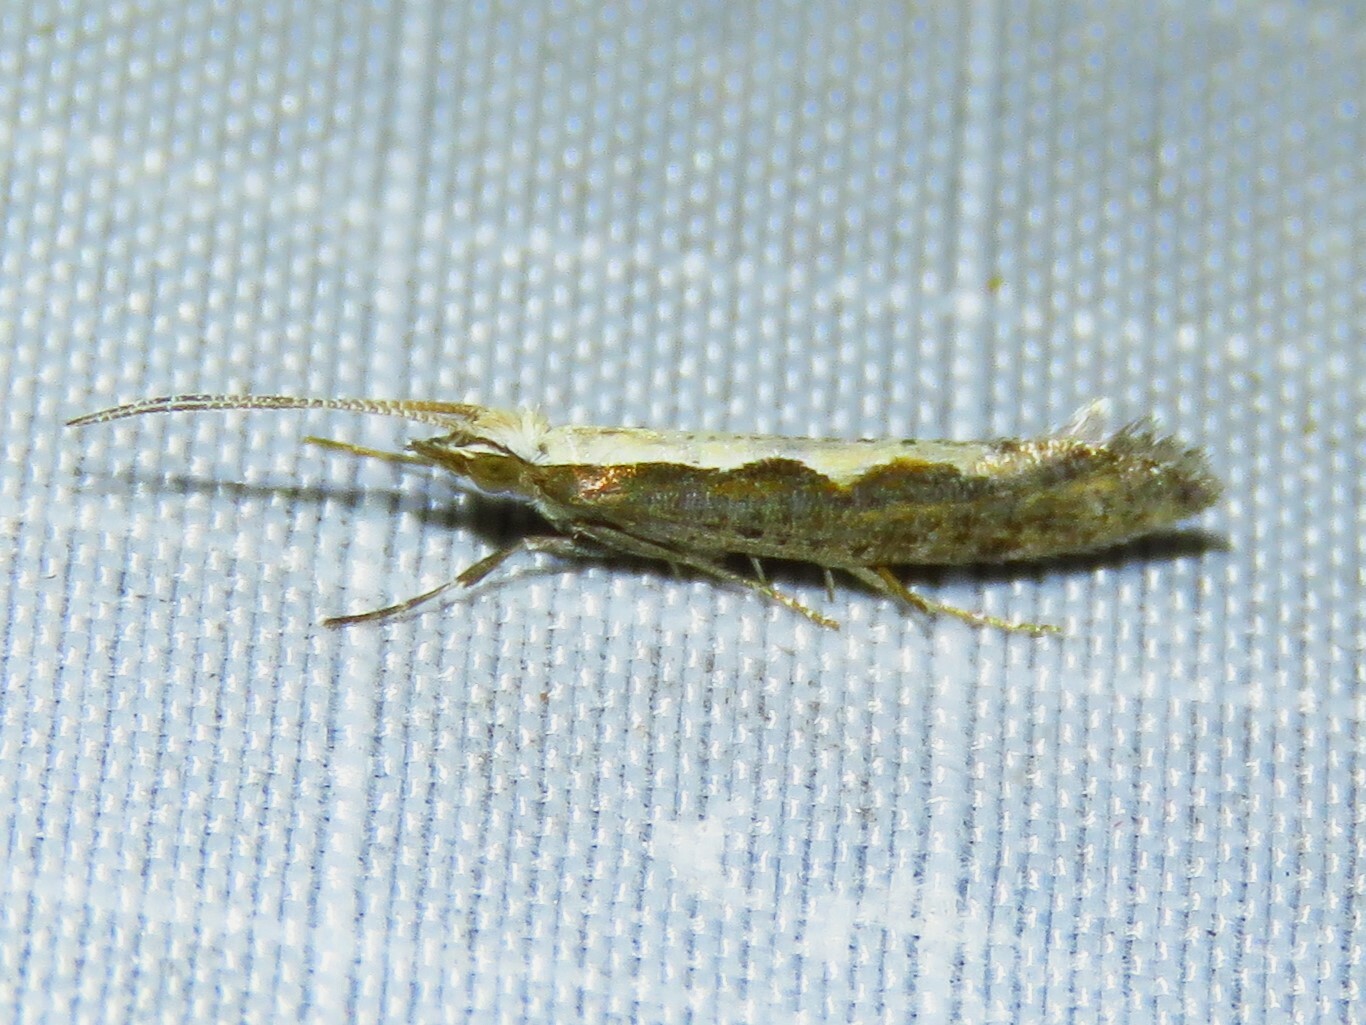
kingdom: Animalia
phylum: Arthropoda
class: Insecta
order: Lepidoptera
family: Plutellidae
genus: Plutella
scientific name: Plutella xylostella
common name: Diamond-back moth
